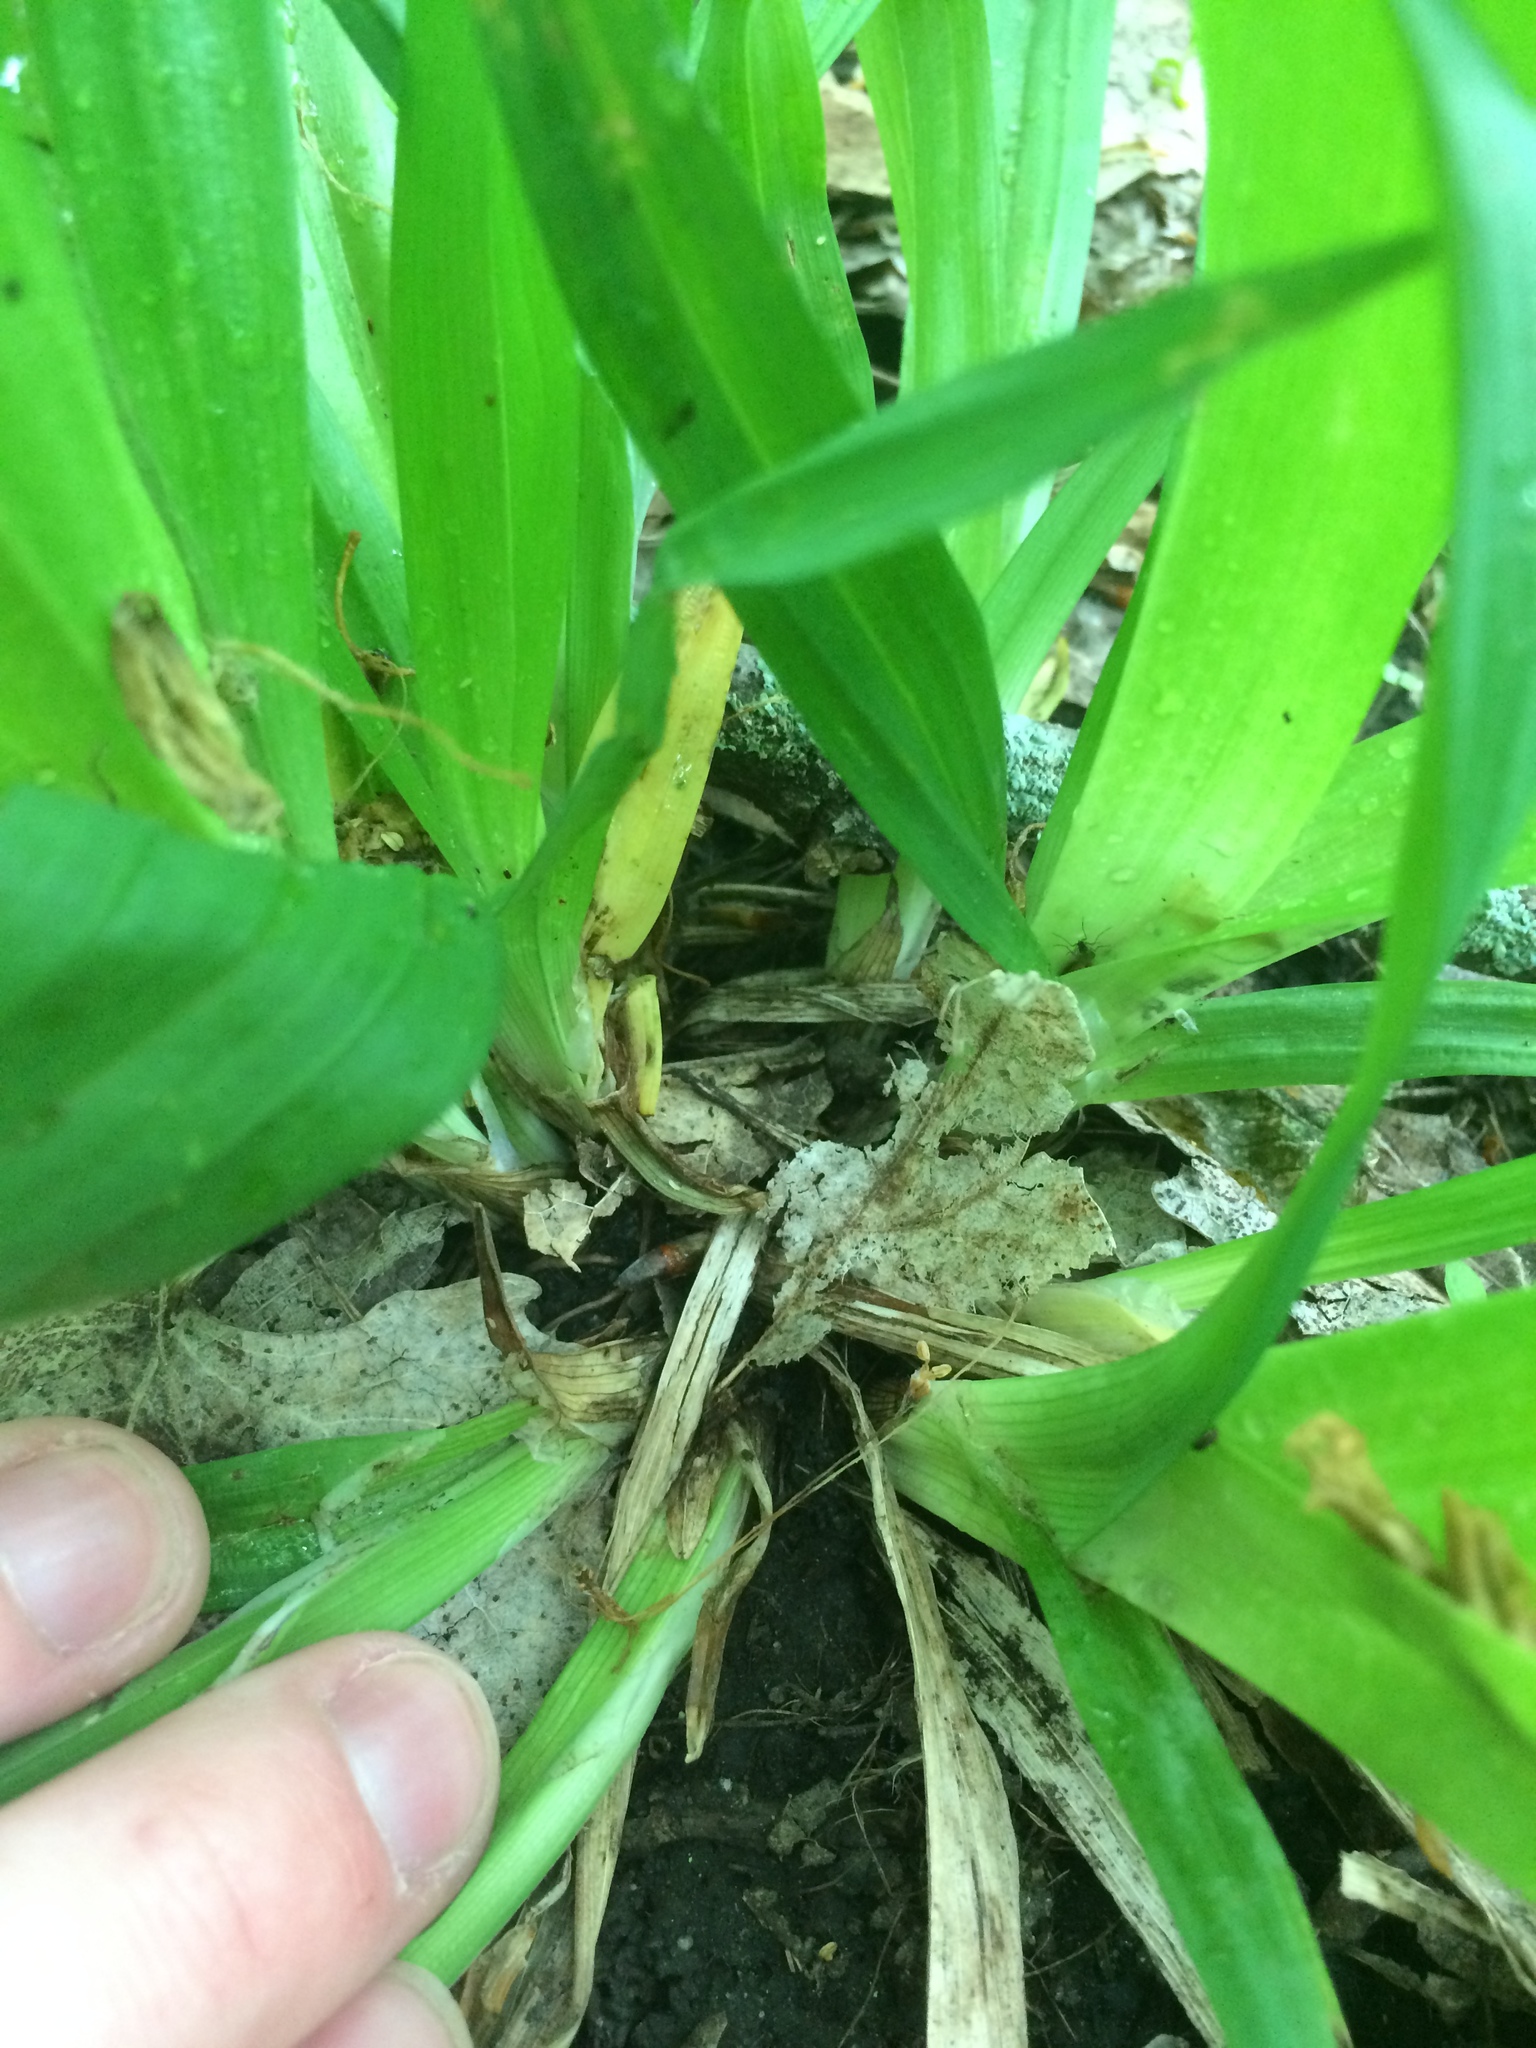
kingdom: Plantae
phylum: Tracheophyta
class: Liliopsida
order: Poales
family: Cyperaceae
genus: Carex
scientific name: Carex albursina
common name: Blunt-scale wood sedge
